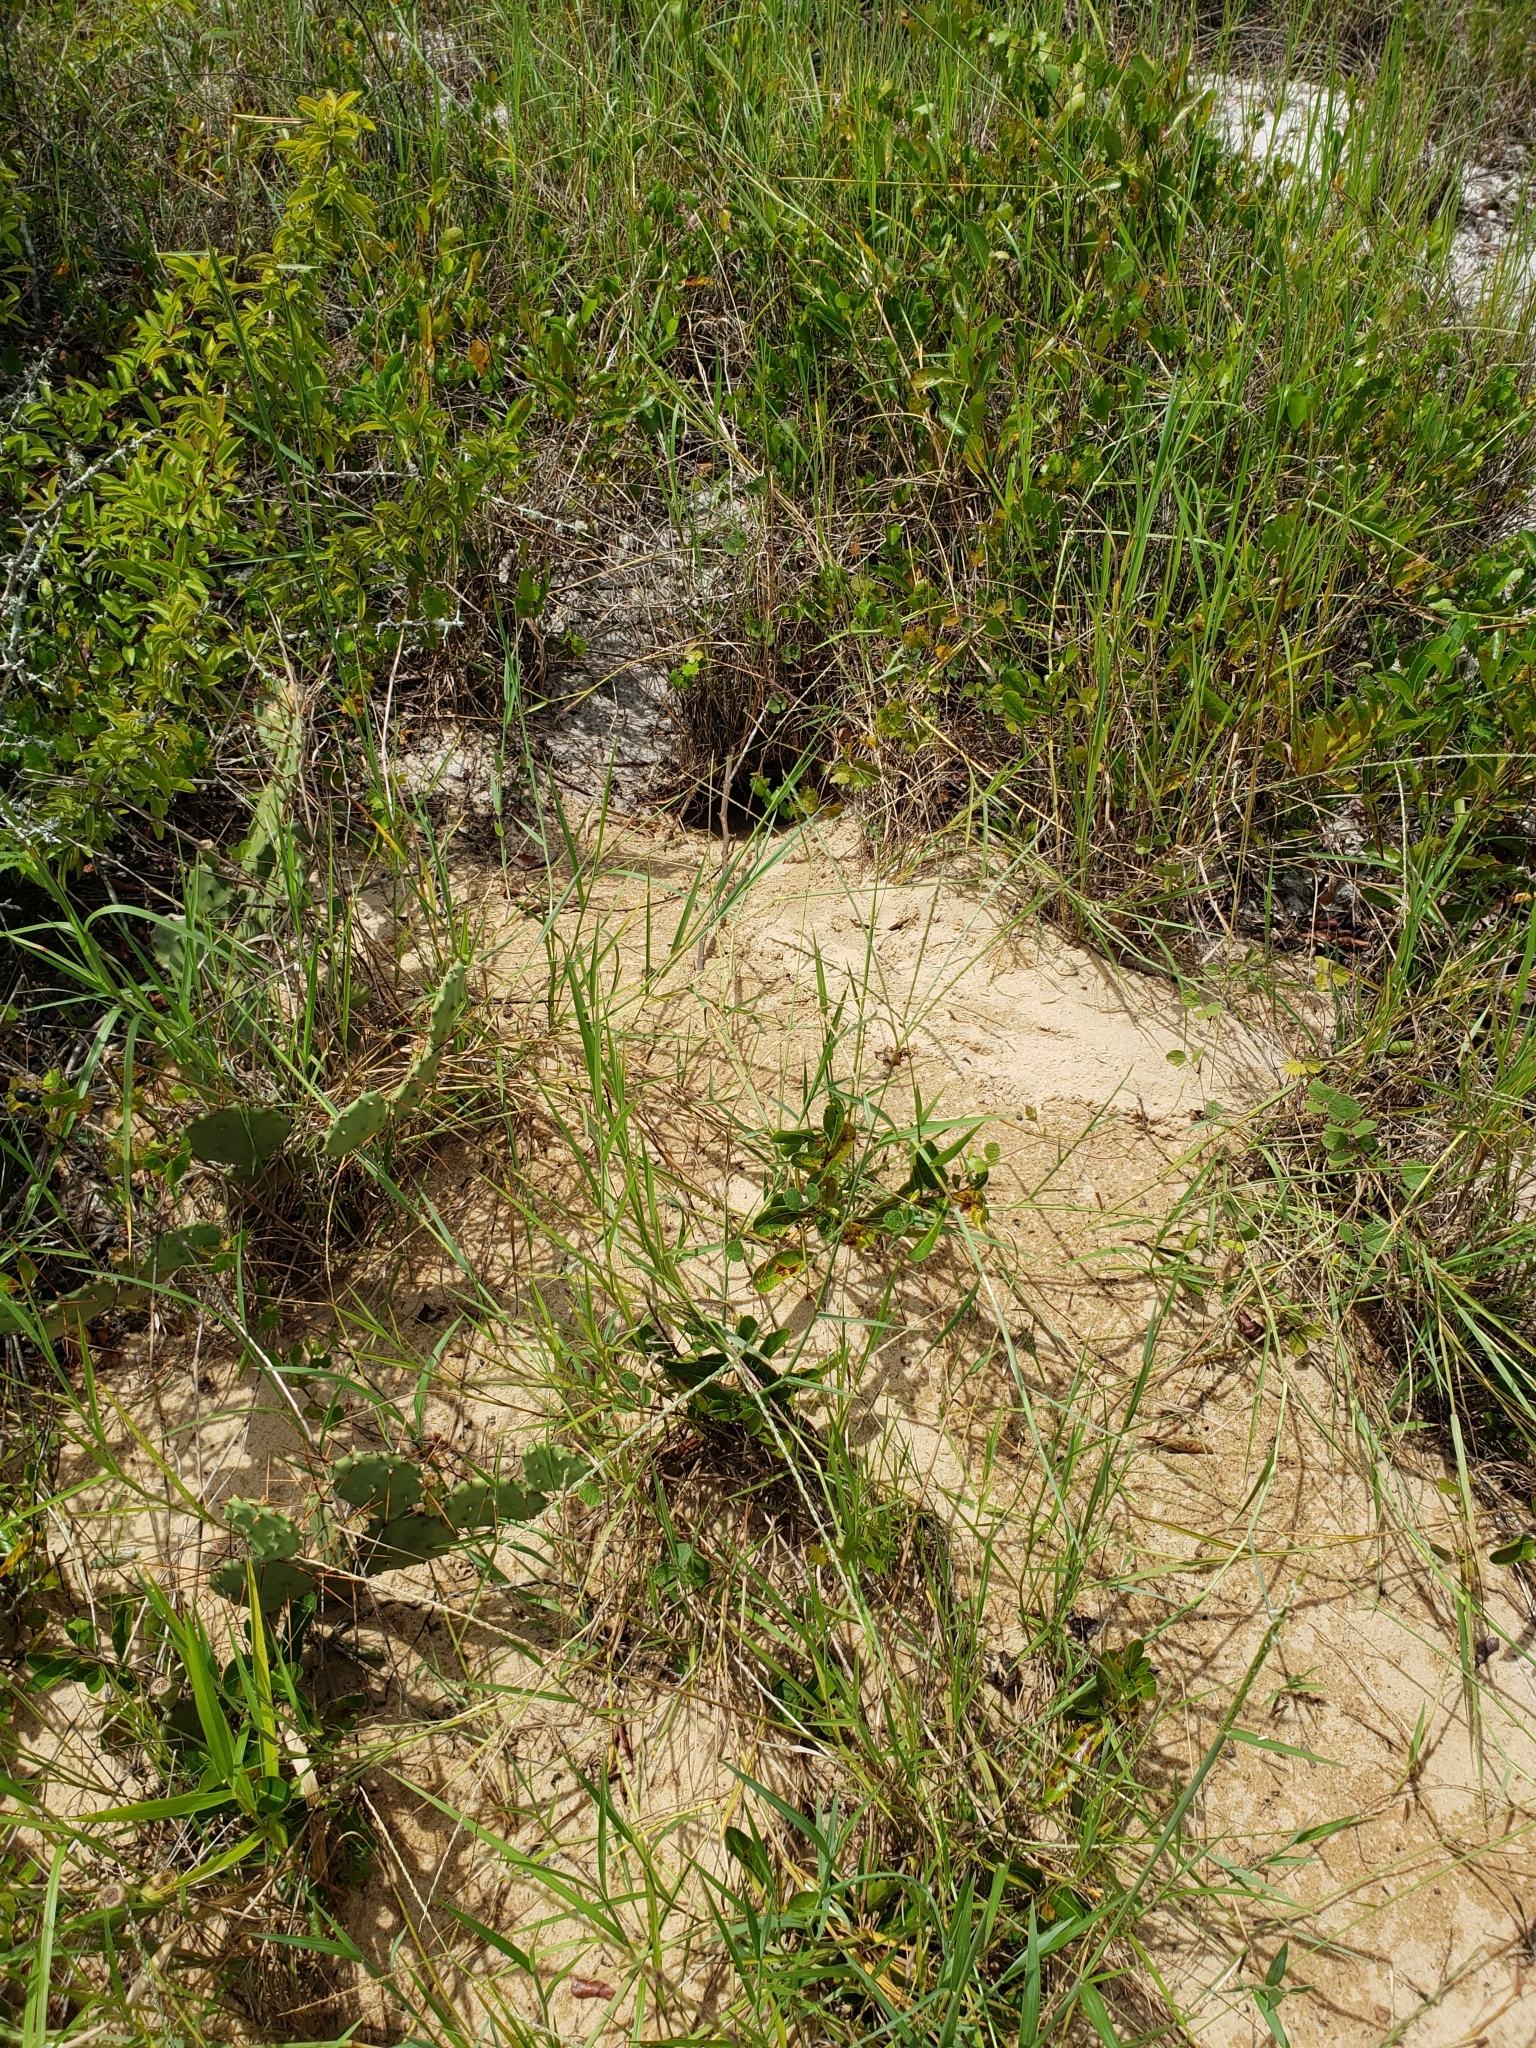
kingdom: Animalia
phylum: Chordata
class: Testudines
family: Testudinidae
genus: Gopherus
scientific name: Gopherus polyphemus
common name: Florida gopher tortoise
